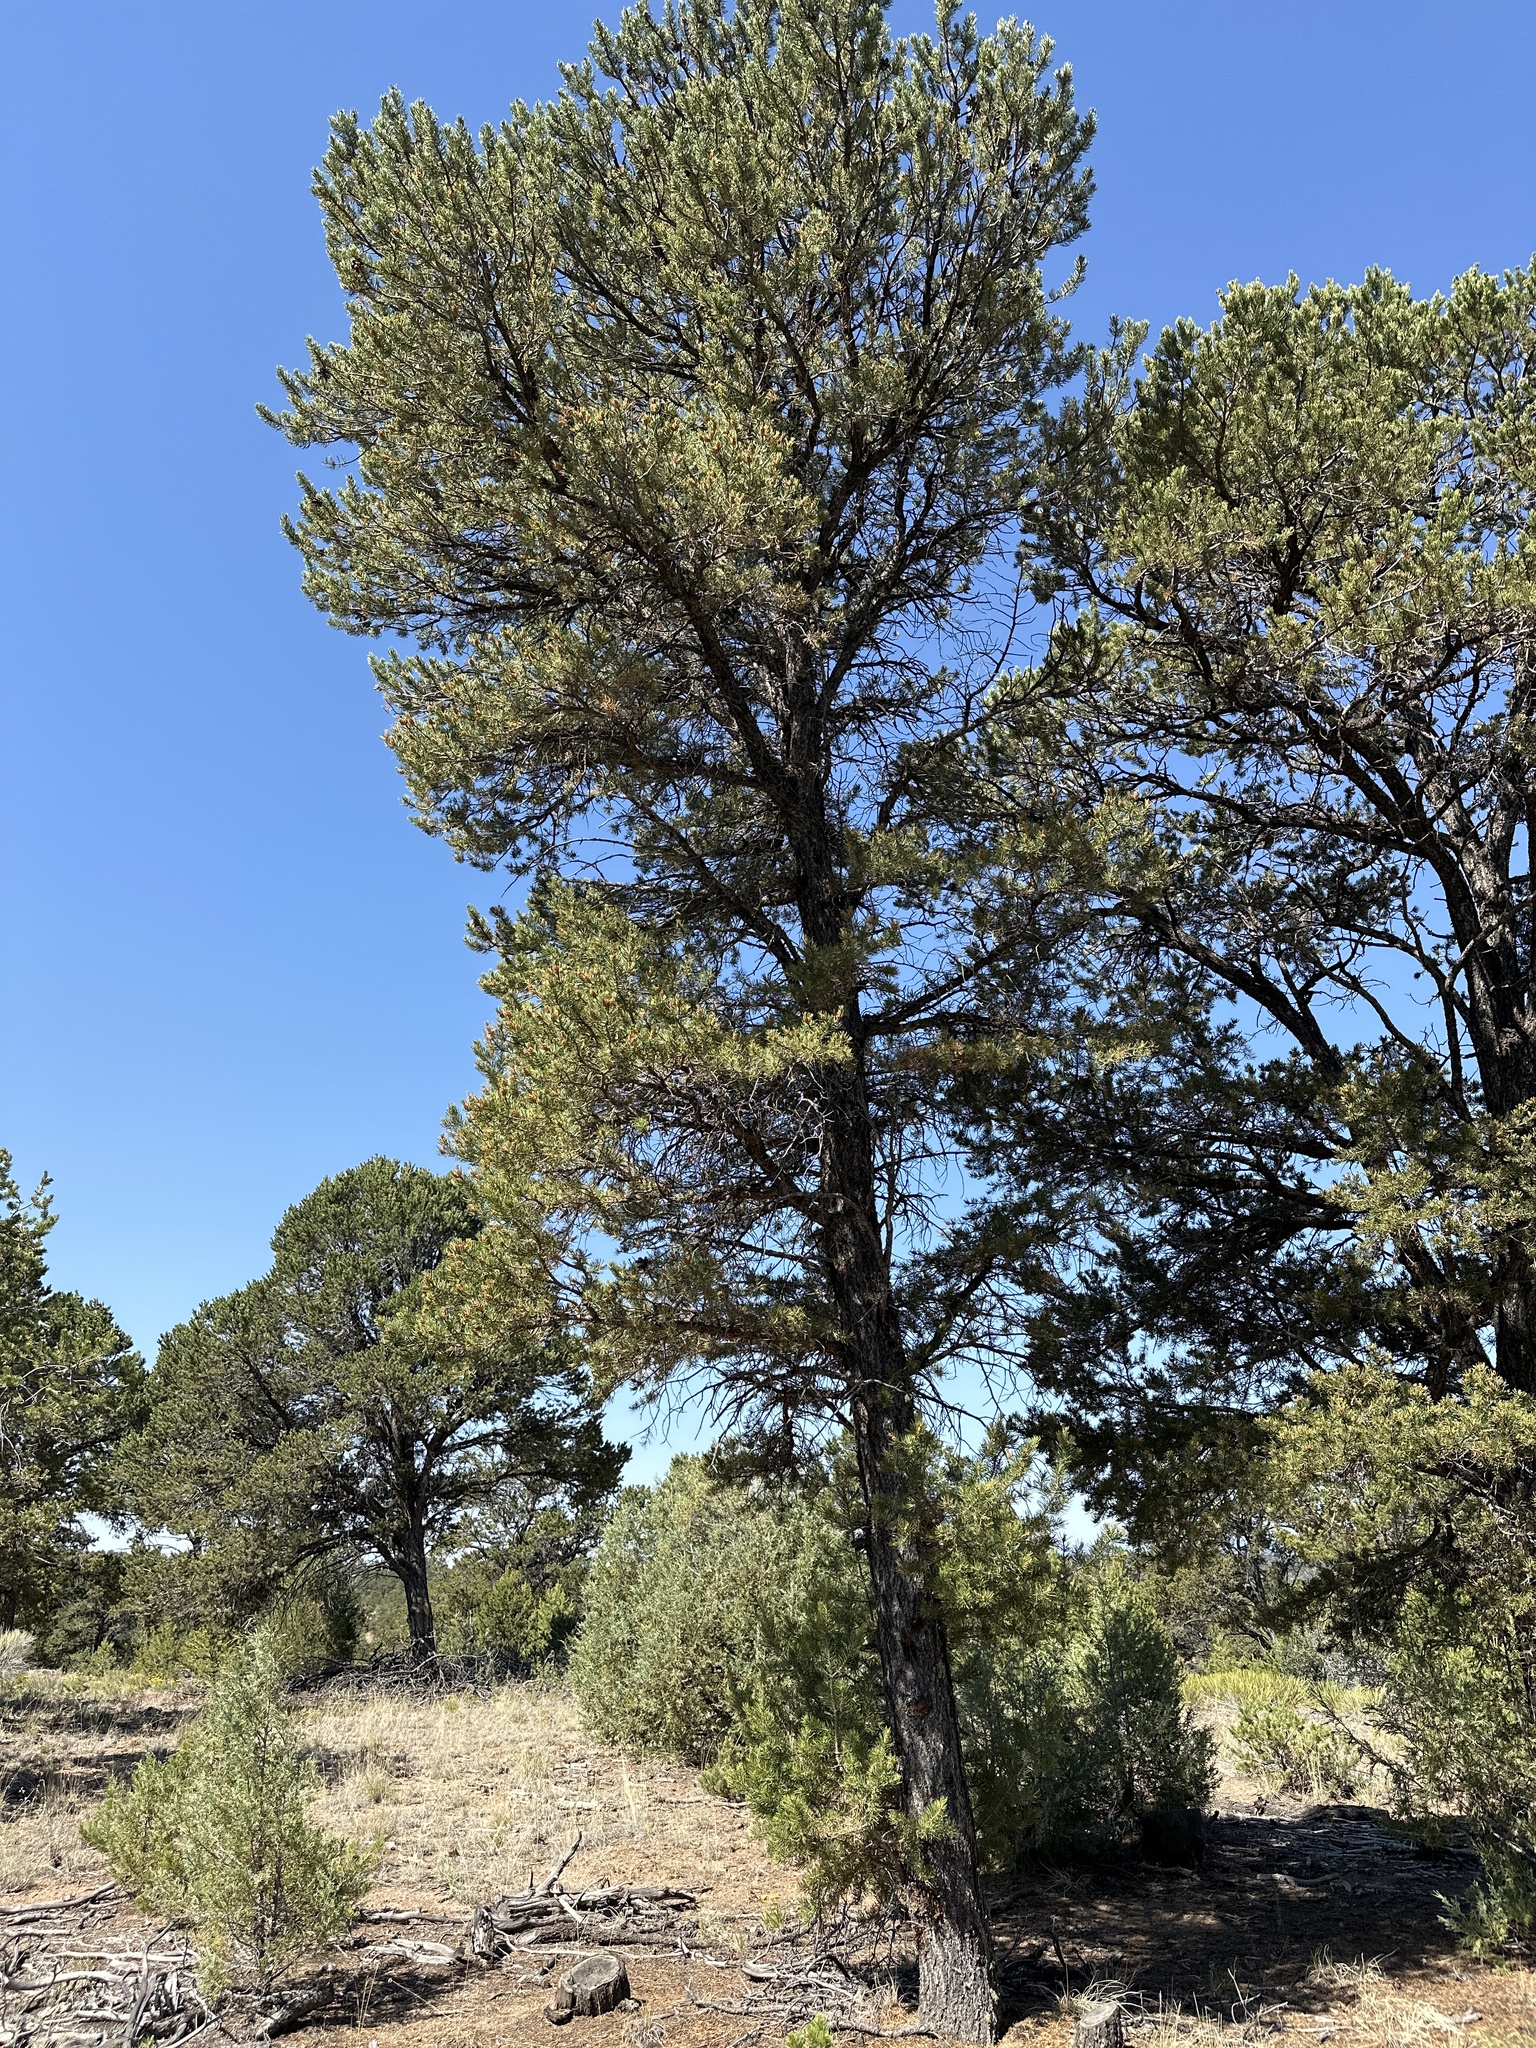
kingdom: Plantae
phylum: Tracheophyta
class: Pinopsida
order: Pinales
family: Pinaceae
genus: Pinus
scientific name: Pinus edulis
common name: Colorado pinyon
